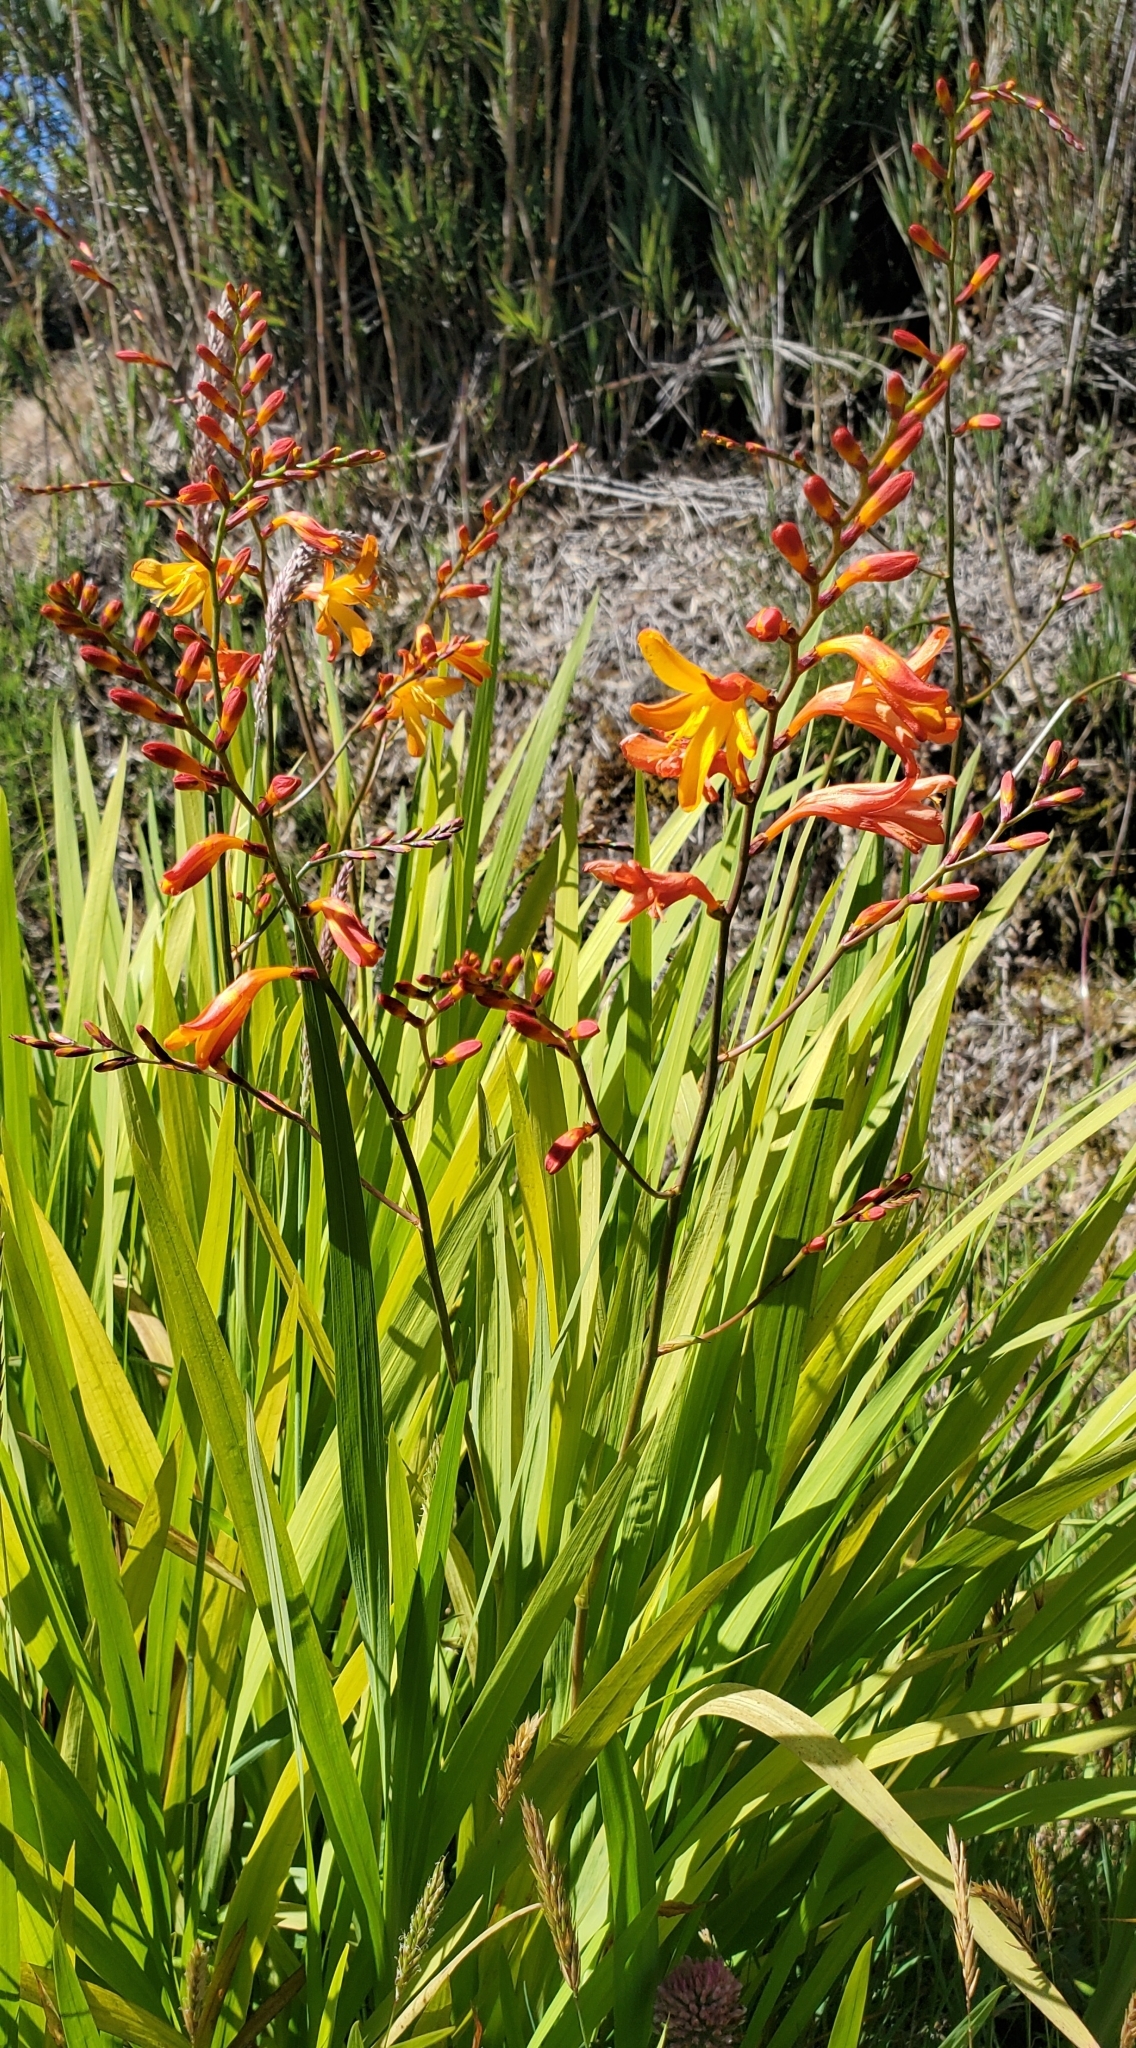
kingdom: Plantae
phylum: Tracheophyta
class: Liliopsida
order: Asparagales
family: Iridaceae
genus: Crocosmia
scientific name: Crocosmia crocosmiiflora
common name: Montbretia
